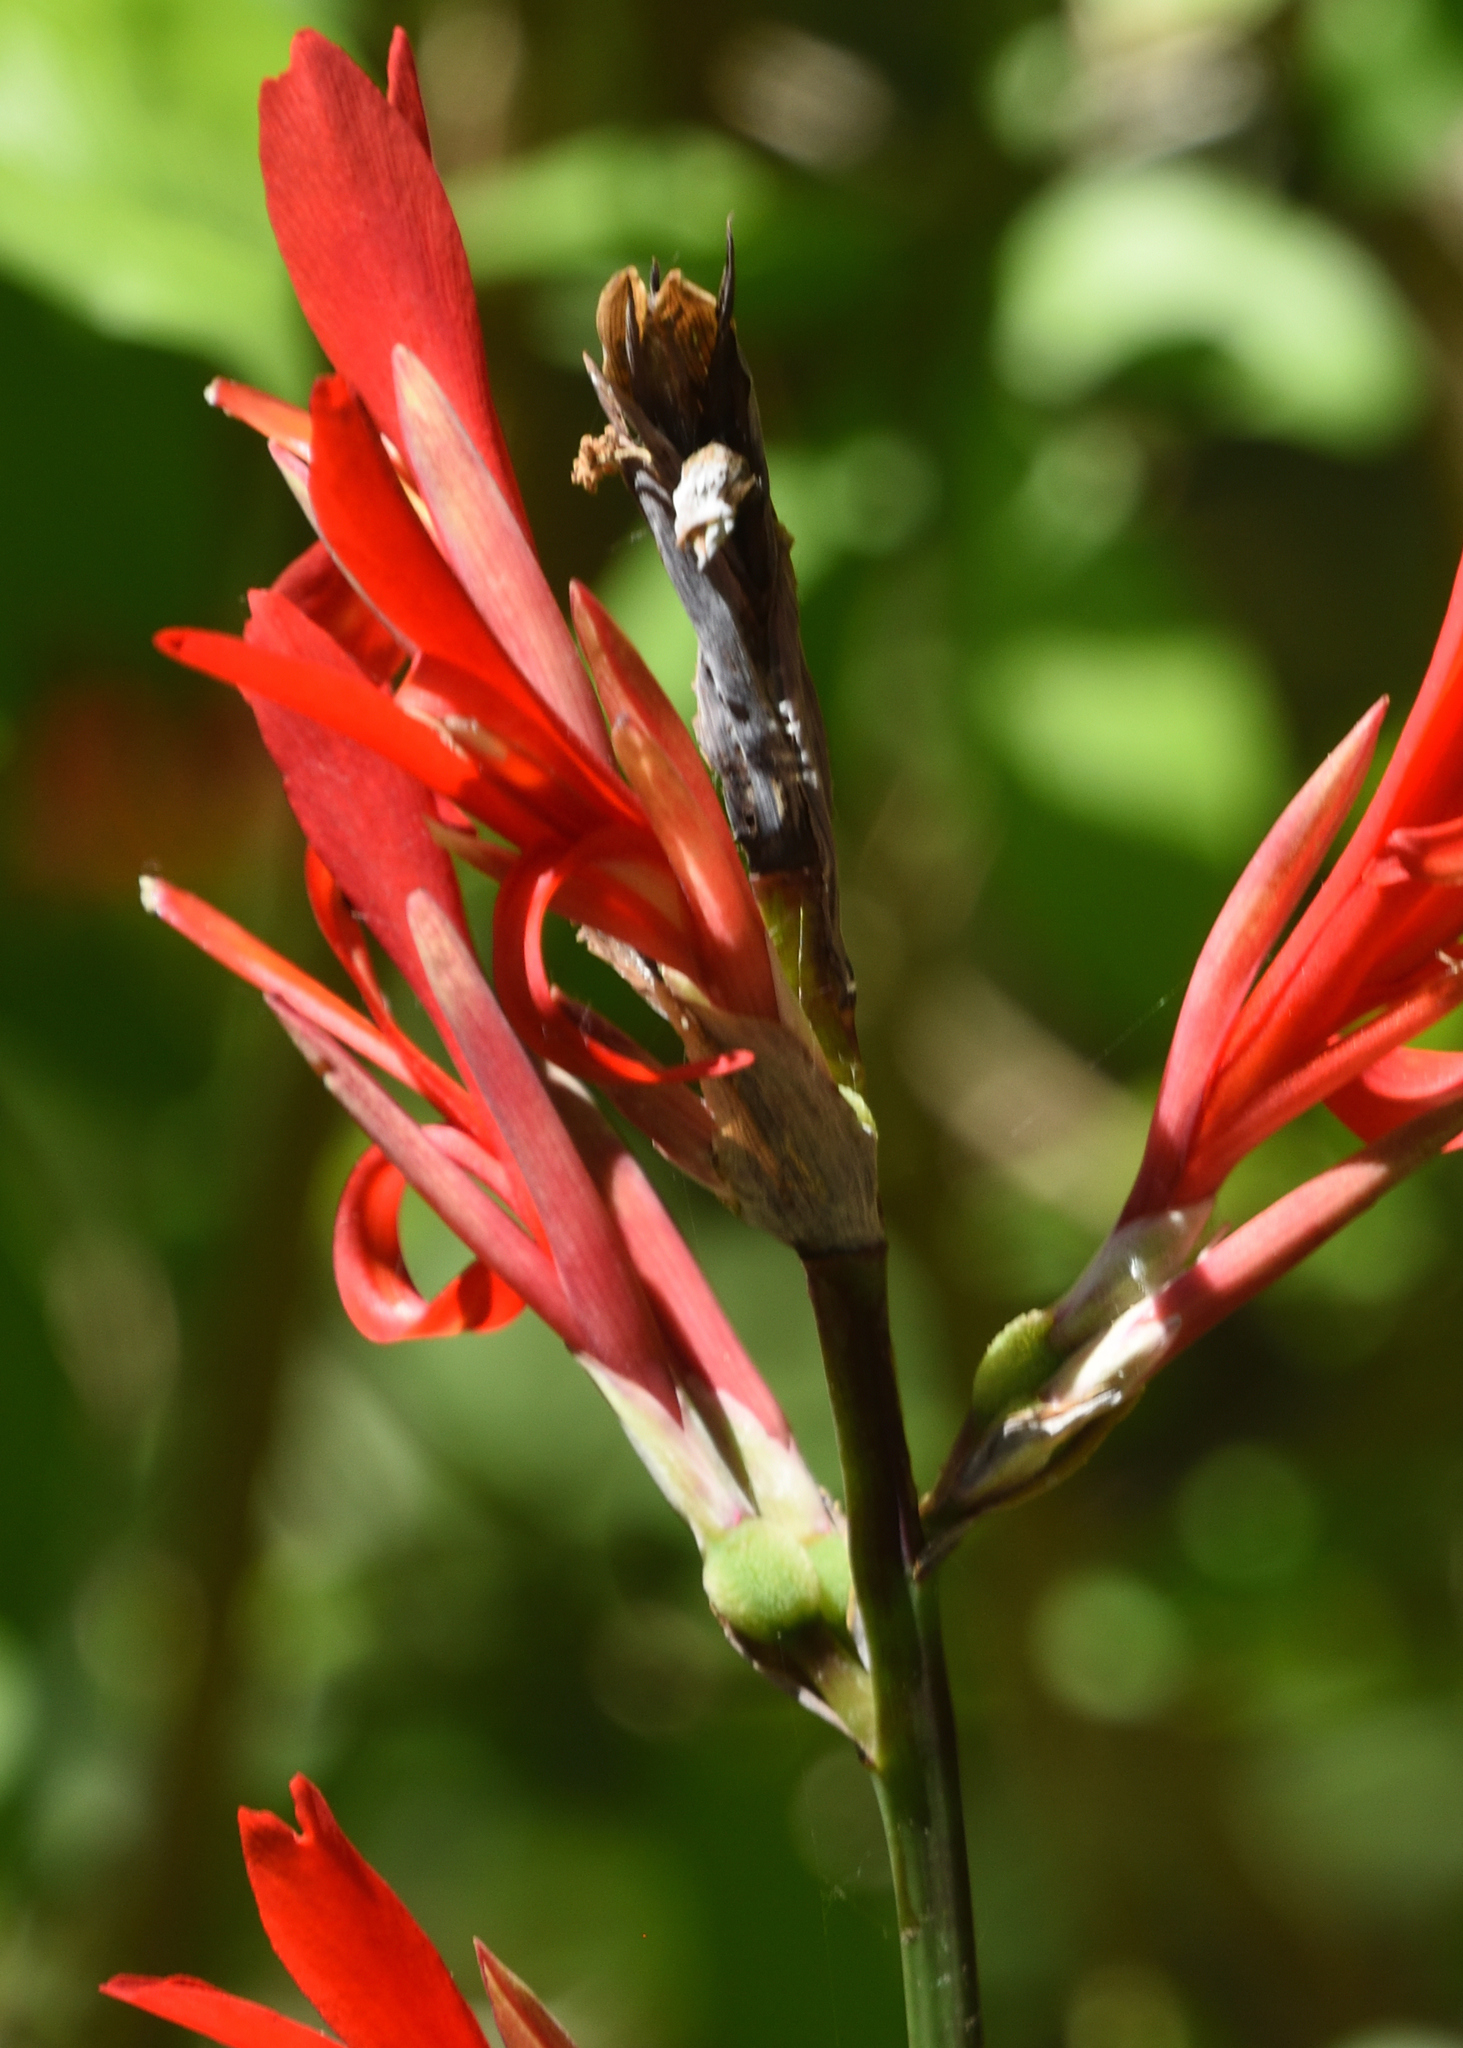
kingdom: Plantae
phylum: Tracheophyta
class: Liliopsida
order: Zingiberales
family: Cannaceae
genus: Canna
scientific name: Canna indica
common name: Indian shot
